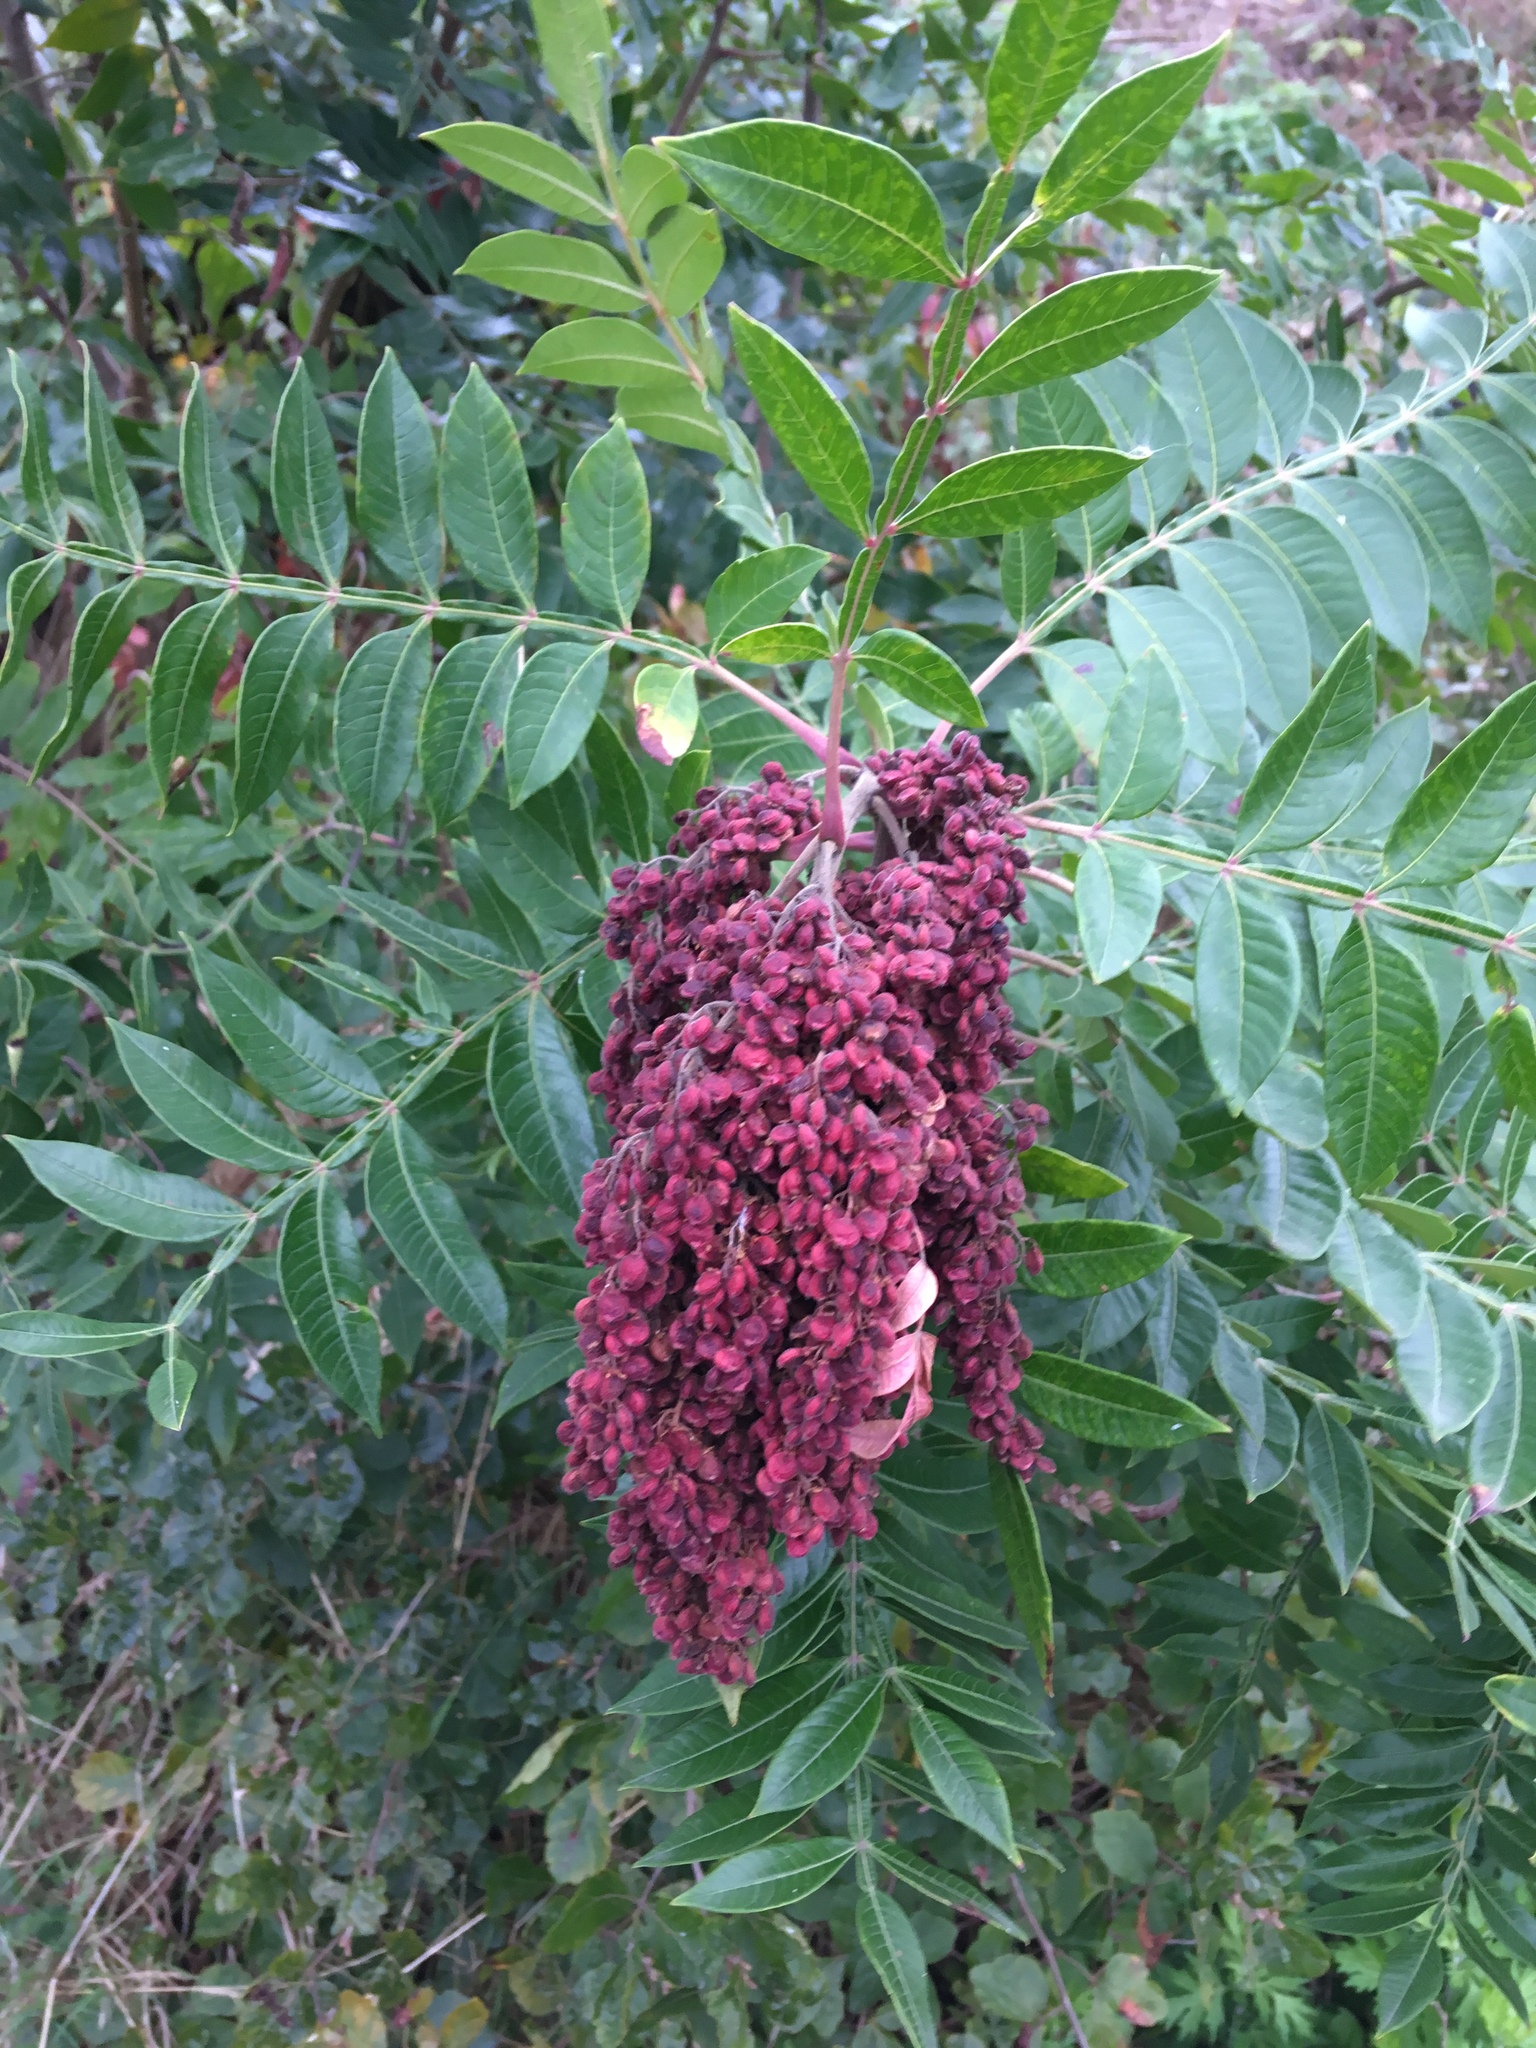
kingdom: Plantae
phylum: Tracheophyta
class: Magnoliopsida
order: Sapindales
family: Anacardiaceae
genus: Rhus
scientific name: Rhus copallina
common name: Shining sumac
